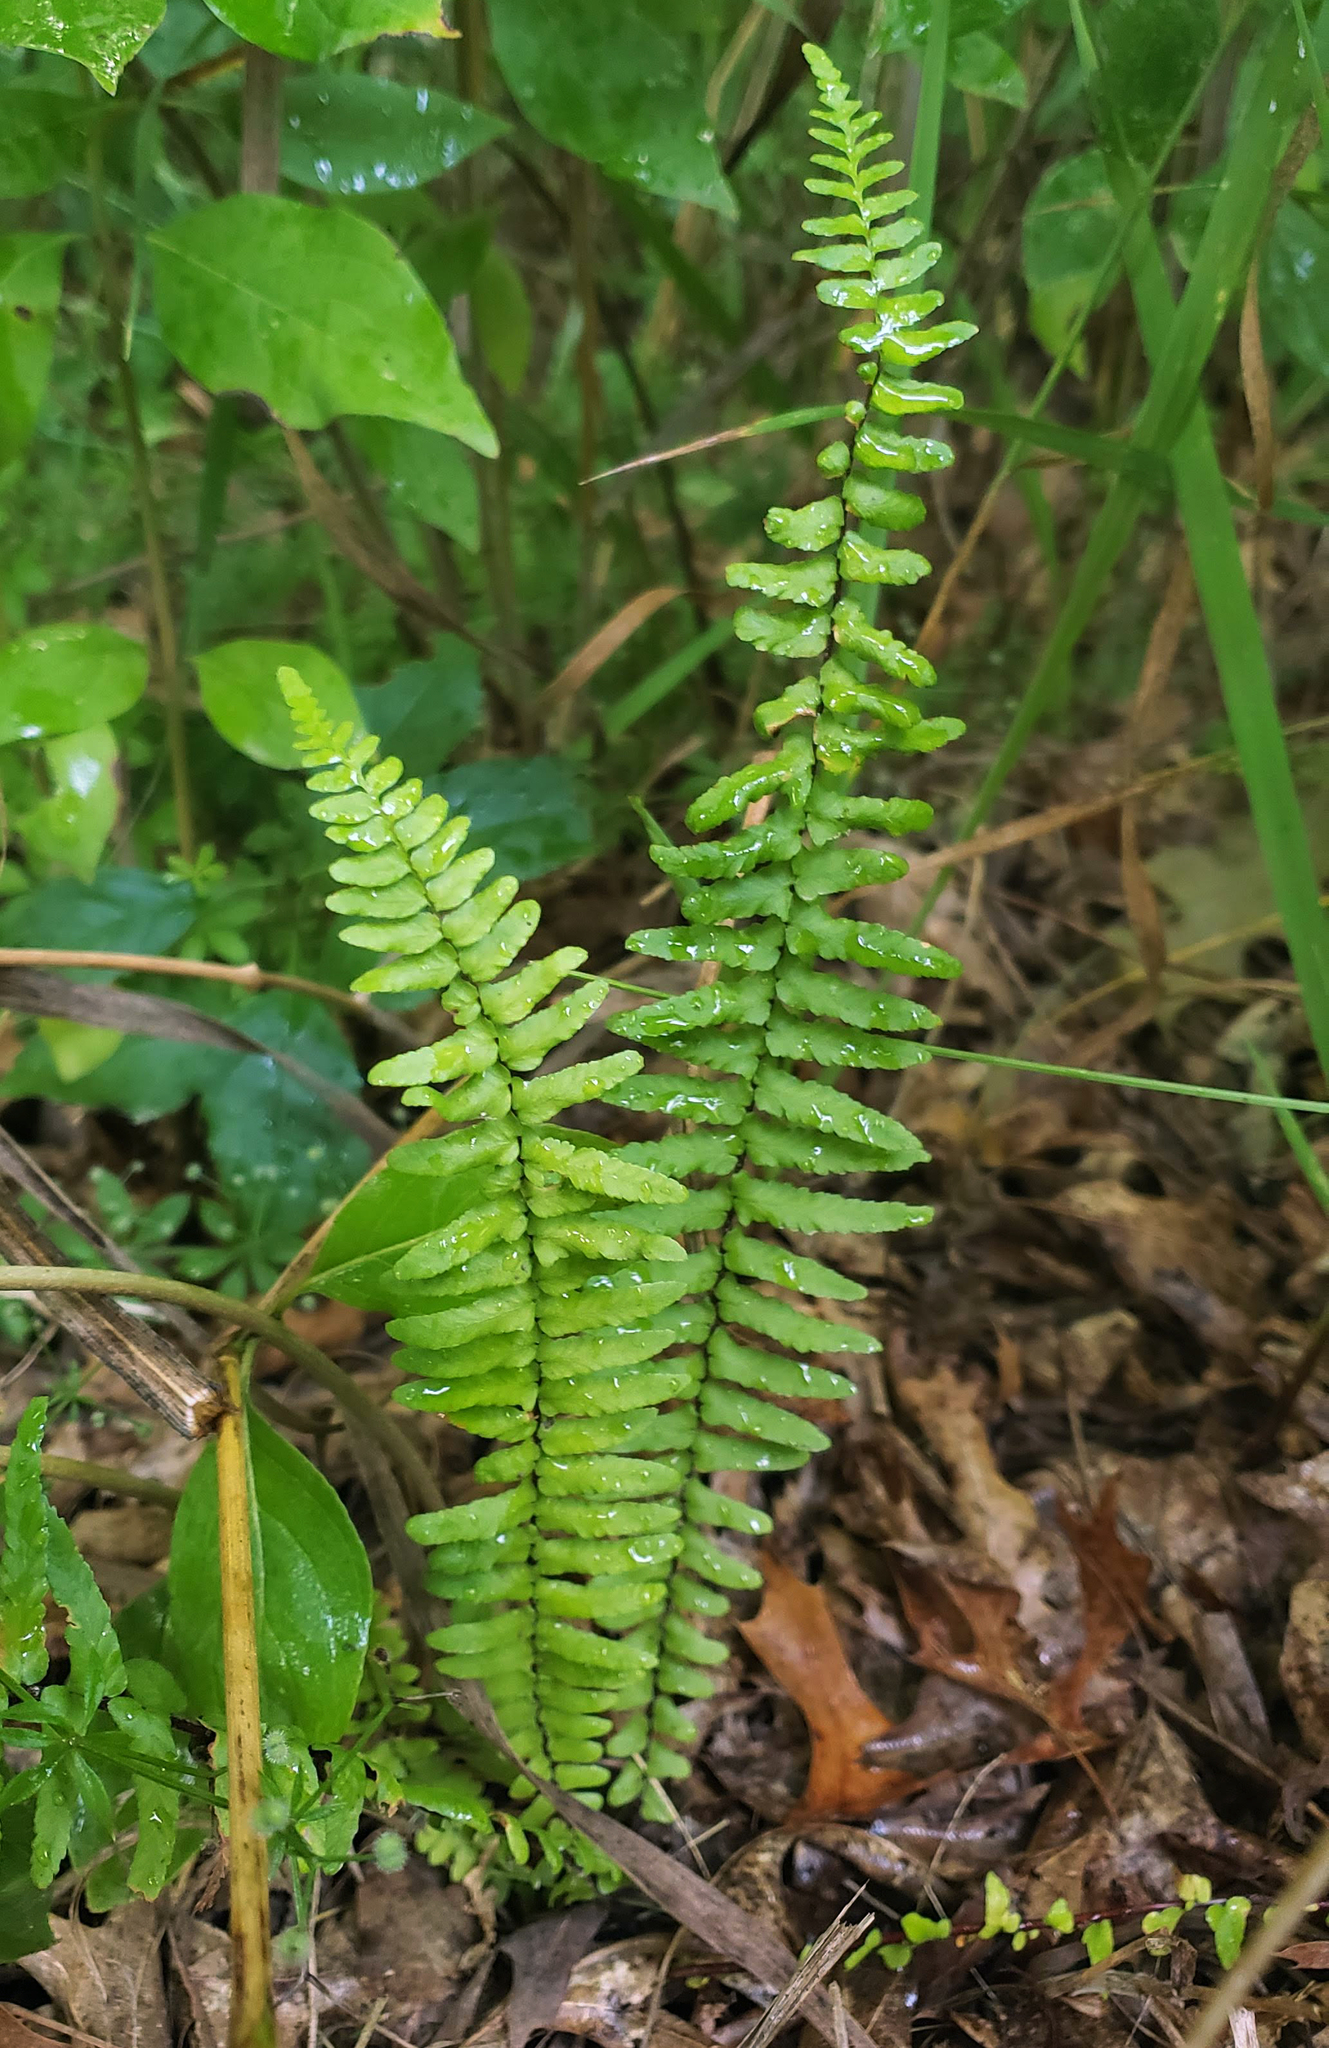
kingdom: Plantae
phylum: Tracheophyta
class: Polypodiopsida
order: Polypodiales
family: Aspleniaceae
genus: Asplenium
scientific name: Asplenium platyneuron
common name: Ebony spleenwort
